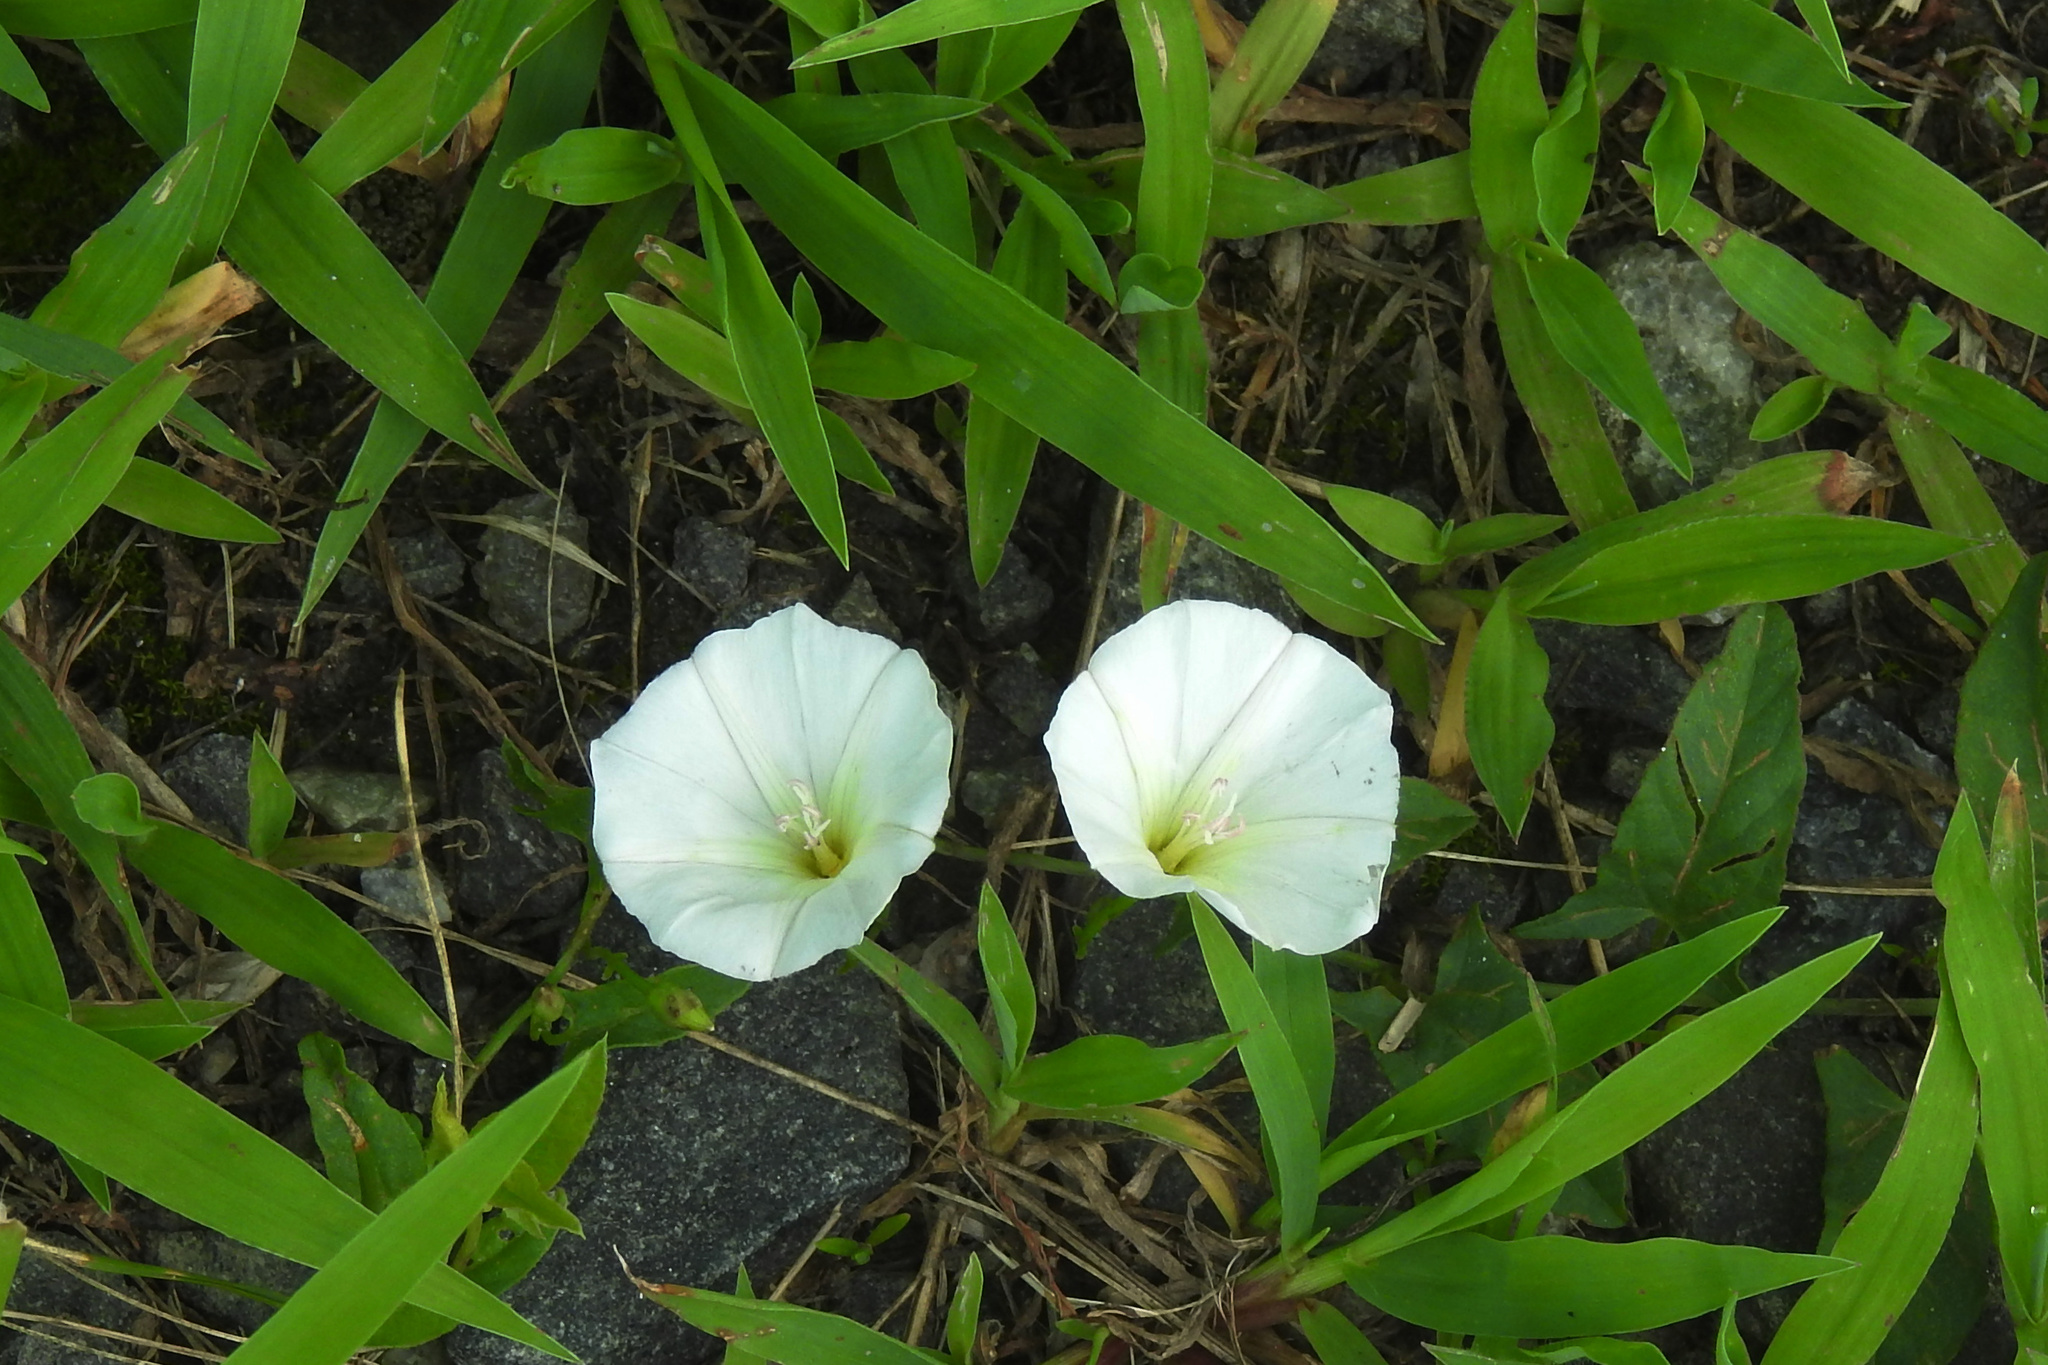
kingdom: Plantae
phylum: Tracheophyta
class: Magnoliopsida
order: Solanales
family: Convolvulaceae
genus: Convolvulus
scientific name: Convolvulus arvensis
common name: Field bindweed
